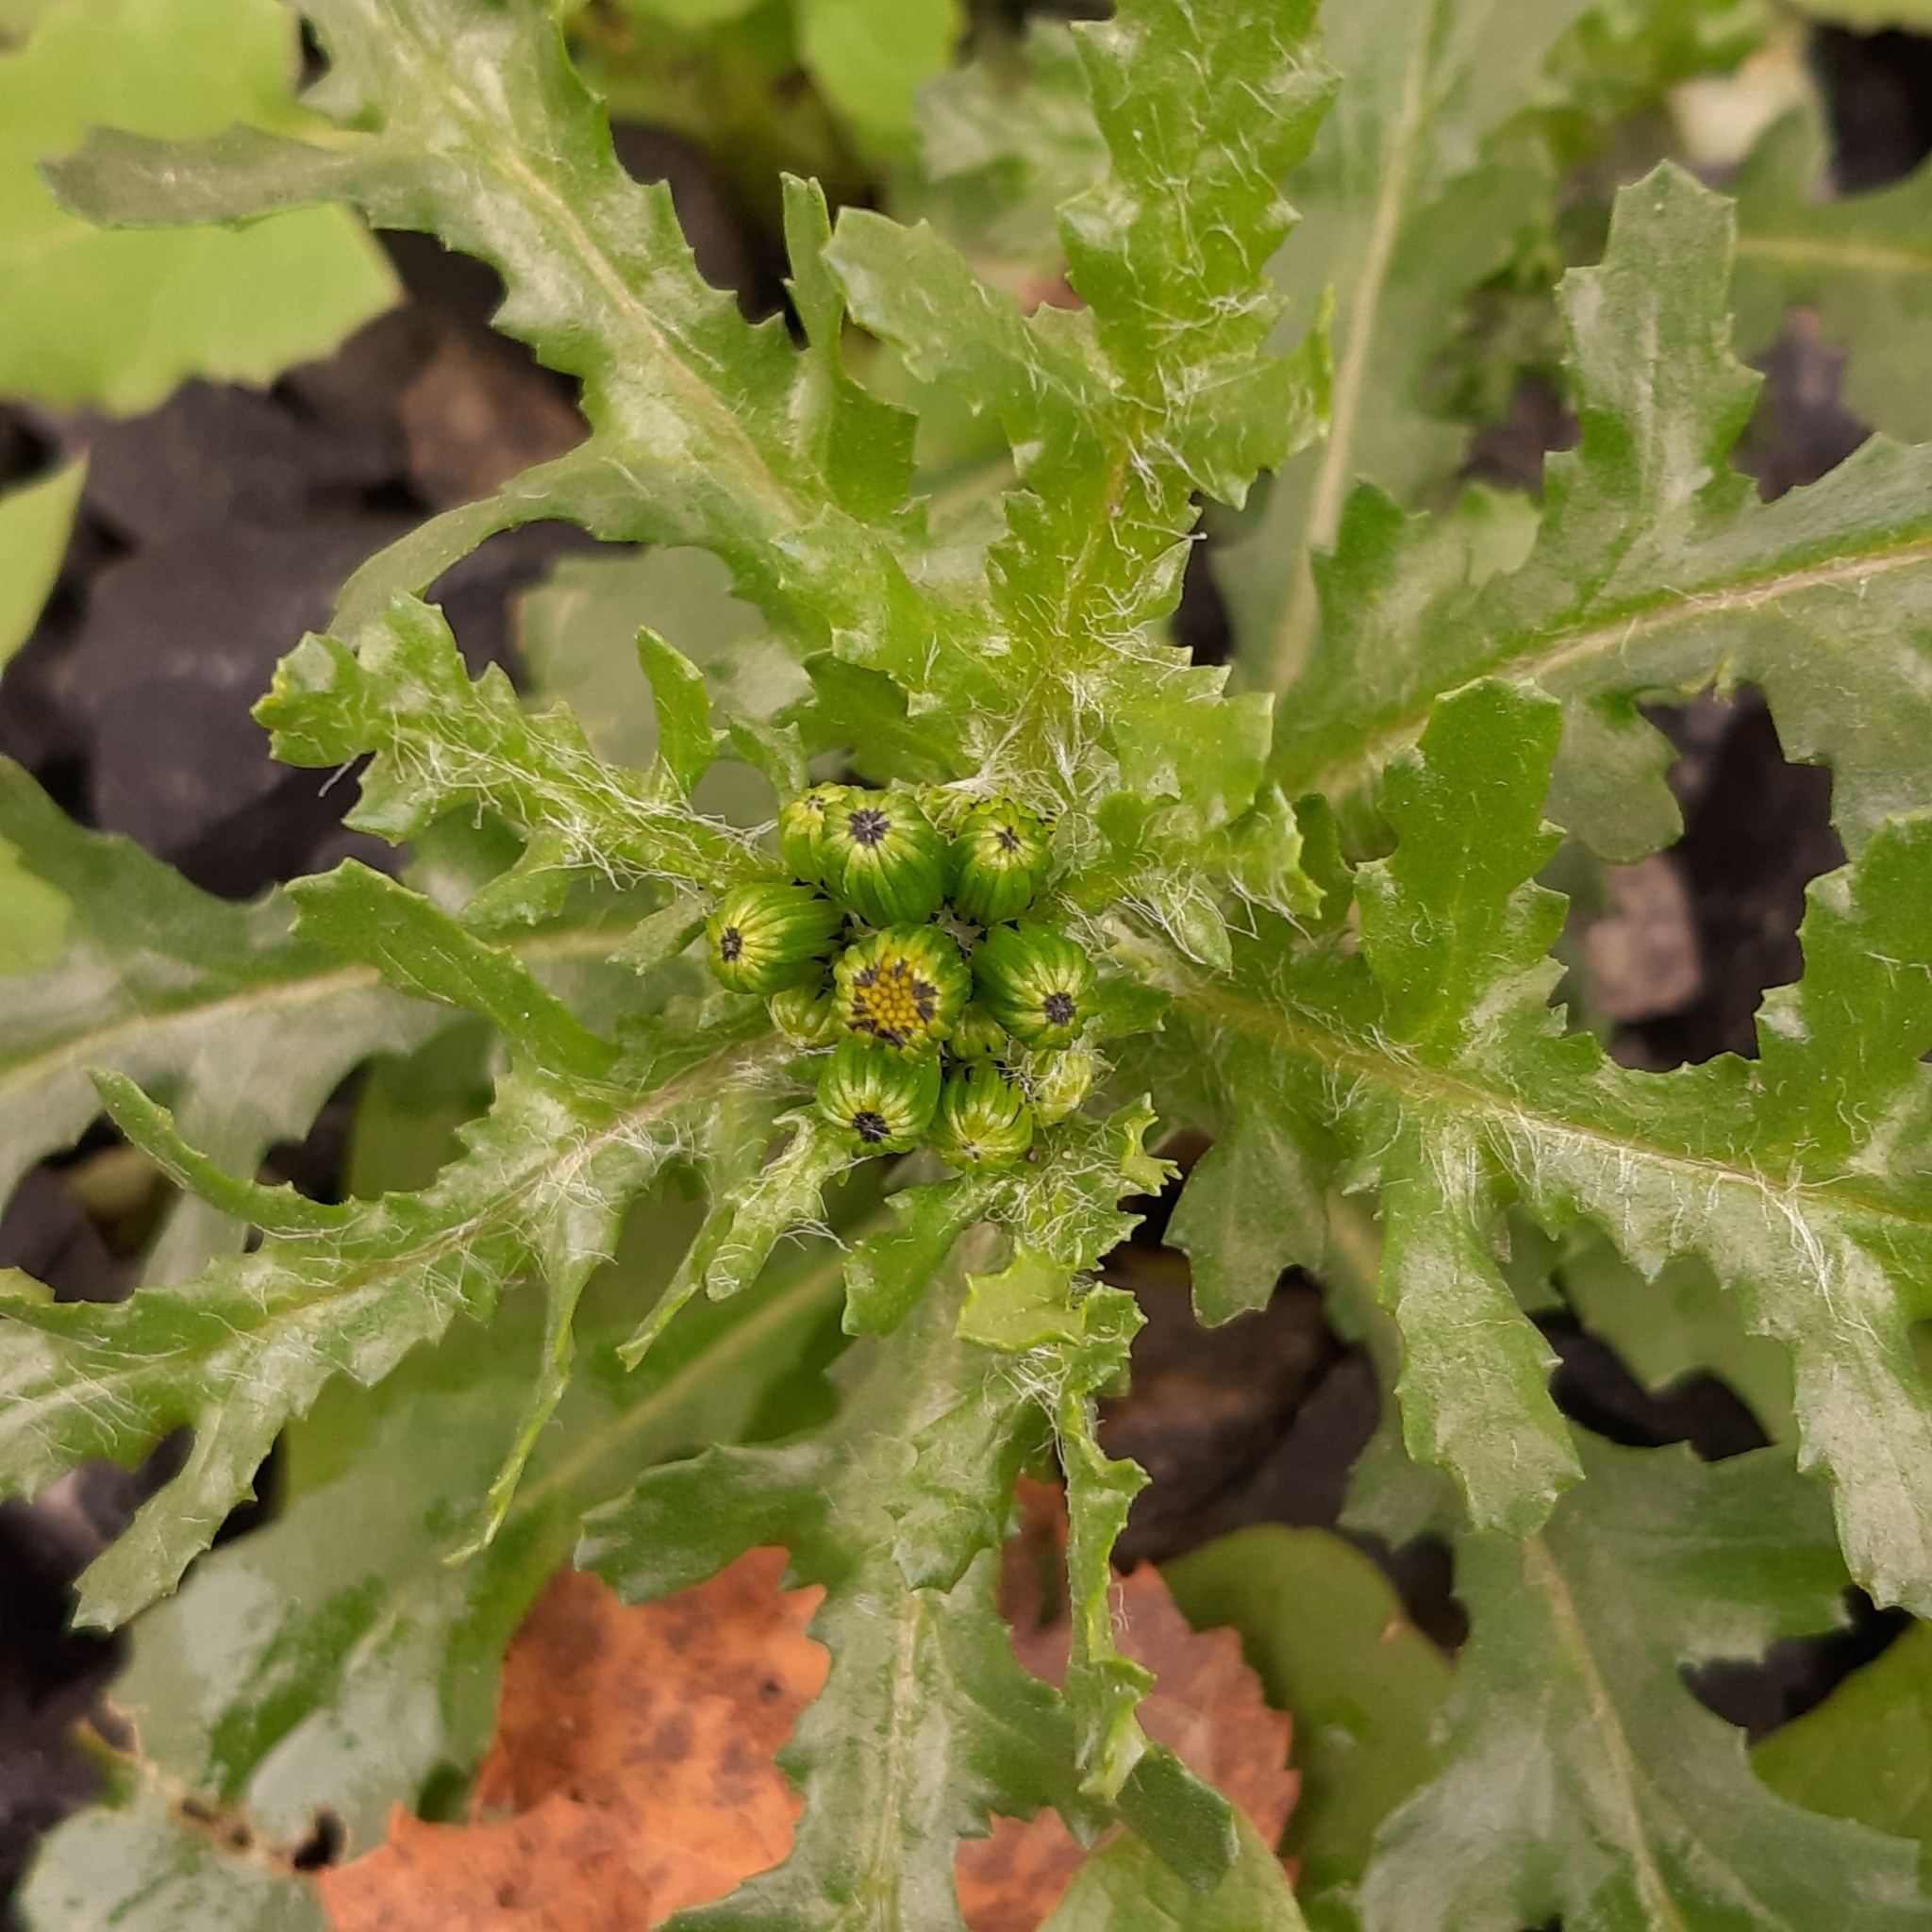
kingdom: Plantae
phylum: Tracheophyta
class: Magnoliopsida
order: Asterales
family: Asteraceae
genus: Senecio
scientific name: Senecio vulgaris
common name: Old-man-in-the-spring
